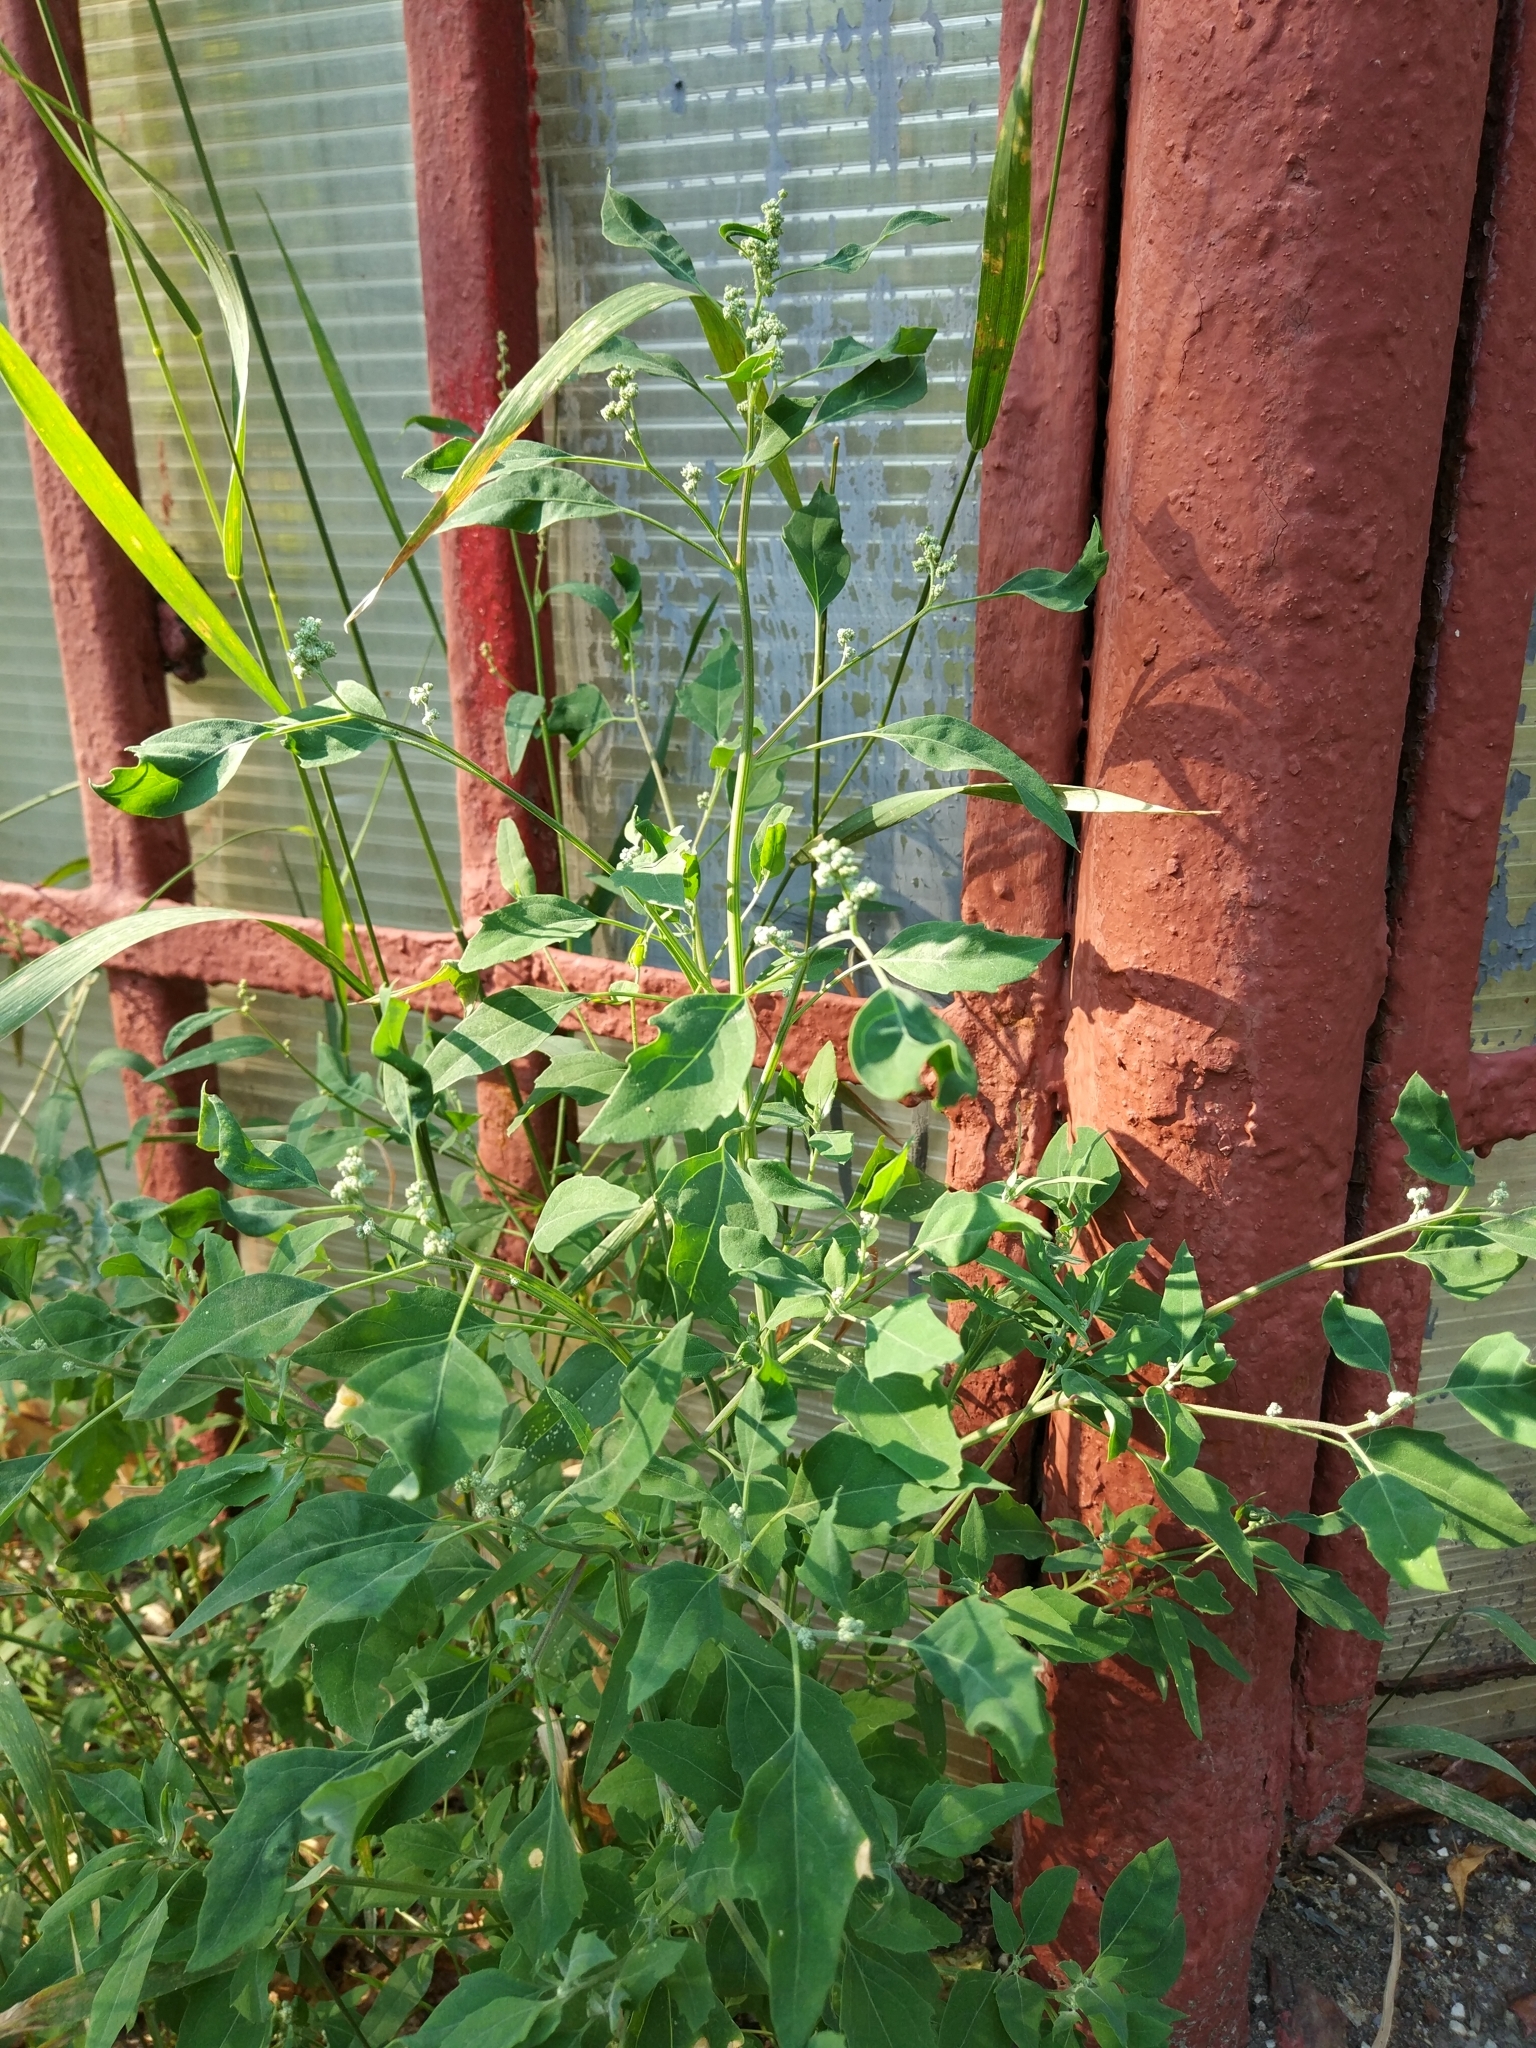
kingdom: Plantae
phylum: Tracheophyta
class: Magnoliopsida
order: Caryophyllales
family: Amaranthaceae
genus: Chenopodium
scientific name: Chenopodium album
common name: Fat-hen
